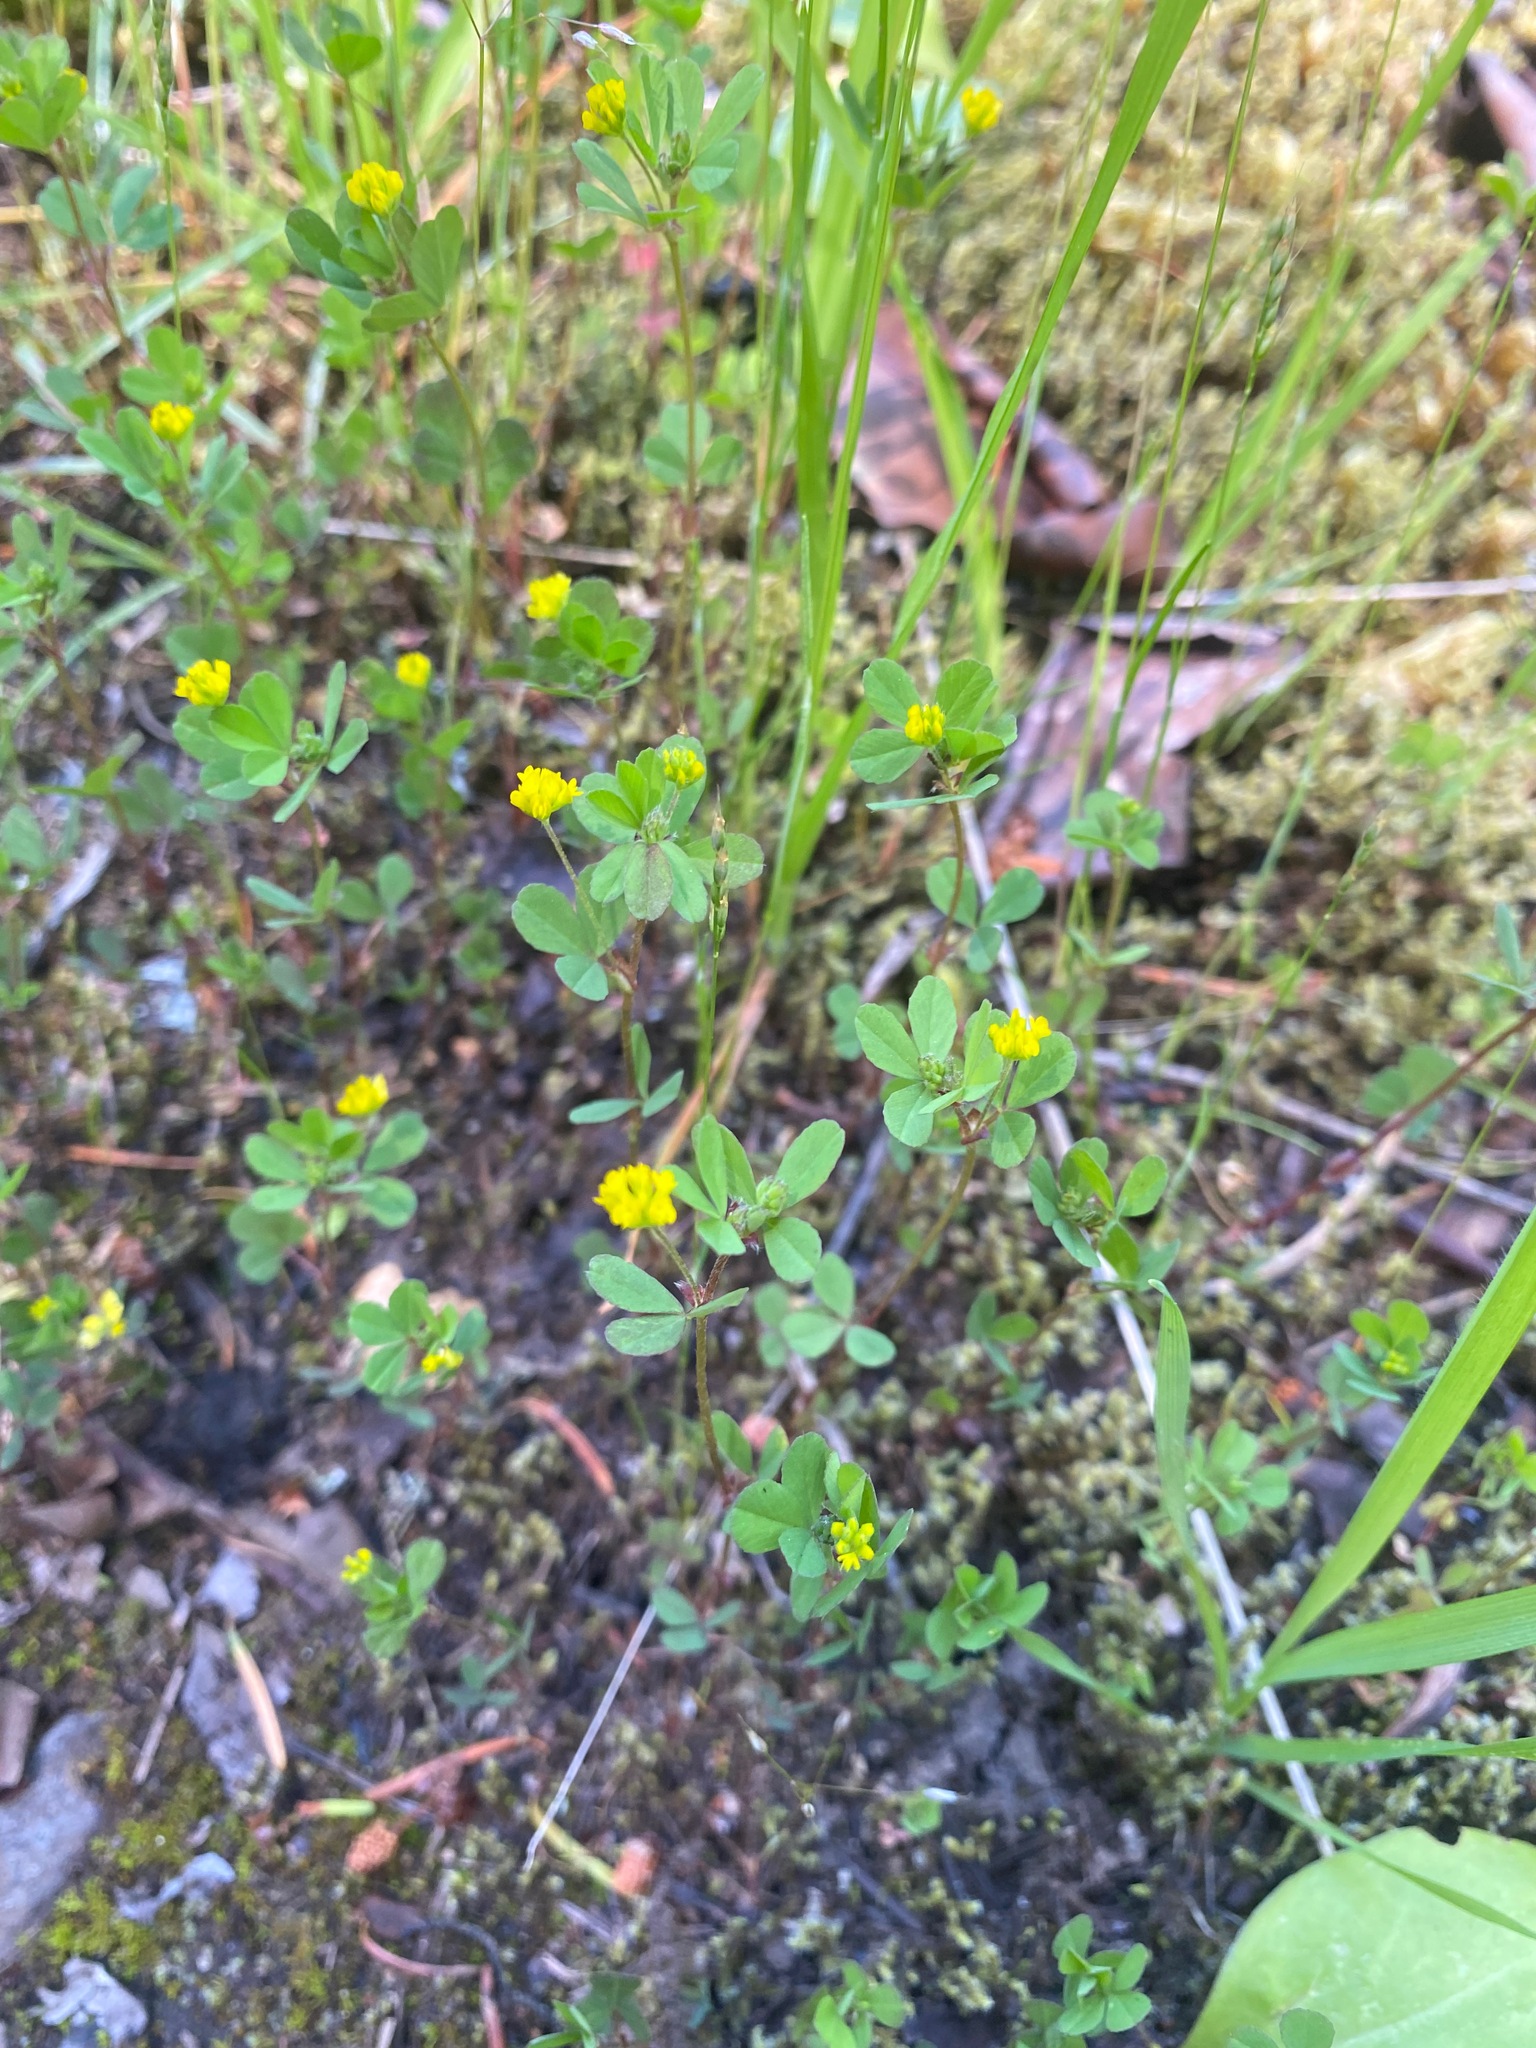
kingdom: Plantae
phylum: Tracheophyta
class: Magnoliopsida
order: Fabales
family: Fabaceae
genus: Trifolium
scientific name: Trifolium dubium
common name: Suckling clover
